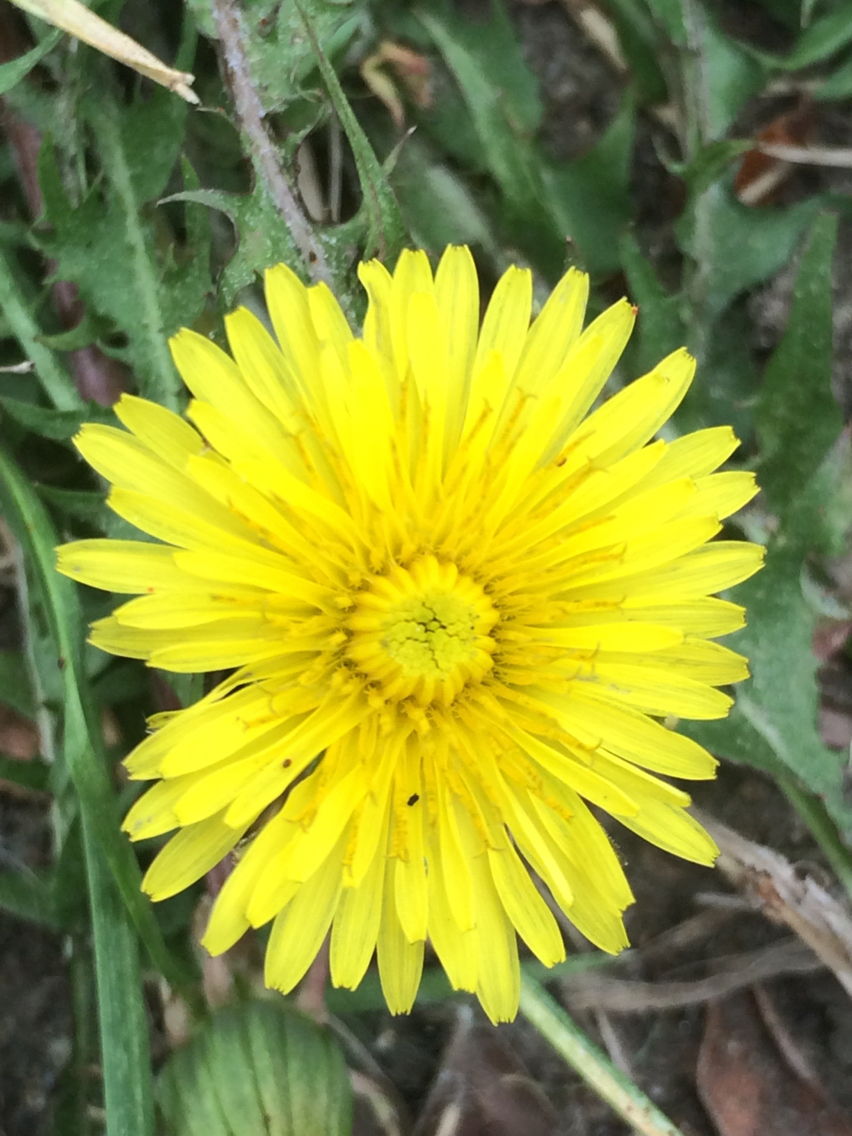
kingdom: Plantae
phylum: Tracheophyta
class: Magnoliopsida
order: Asterales
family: Asteraceae
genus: Taraxacum
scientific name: Taraxacum
